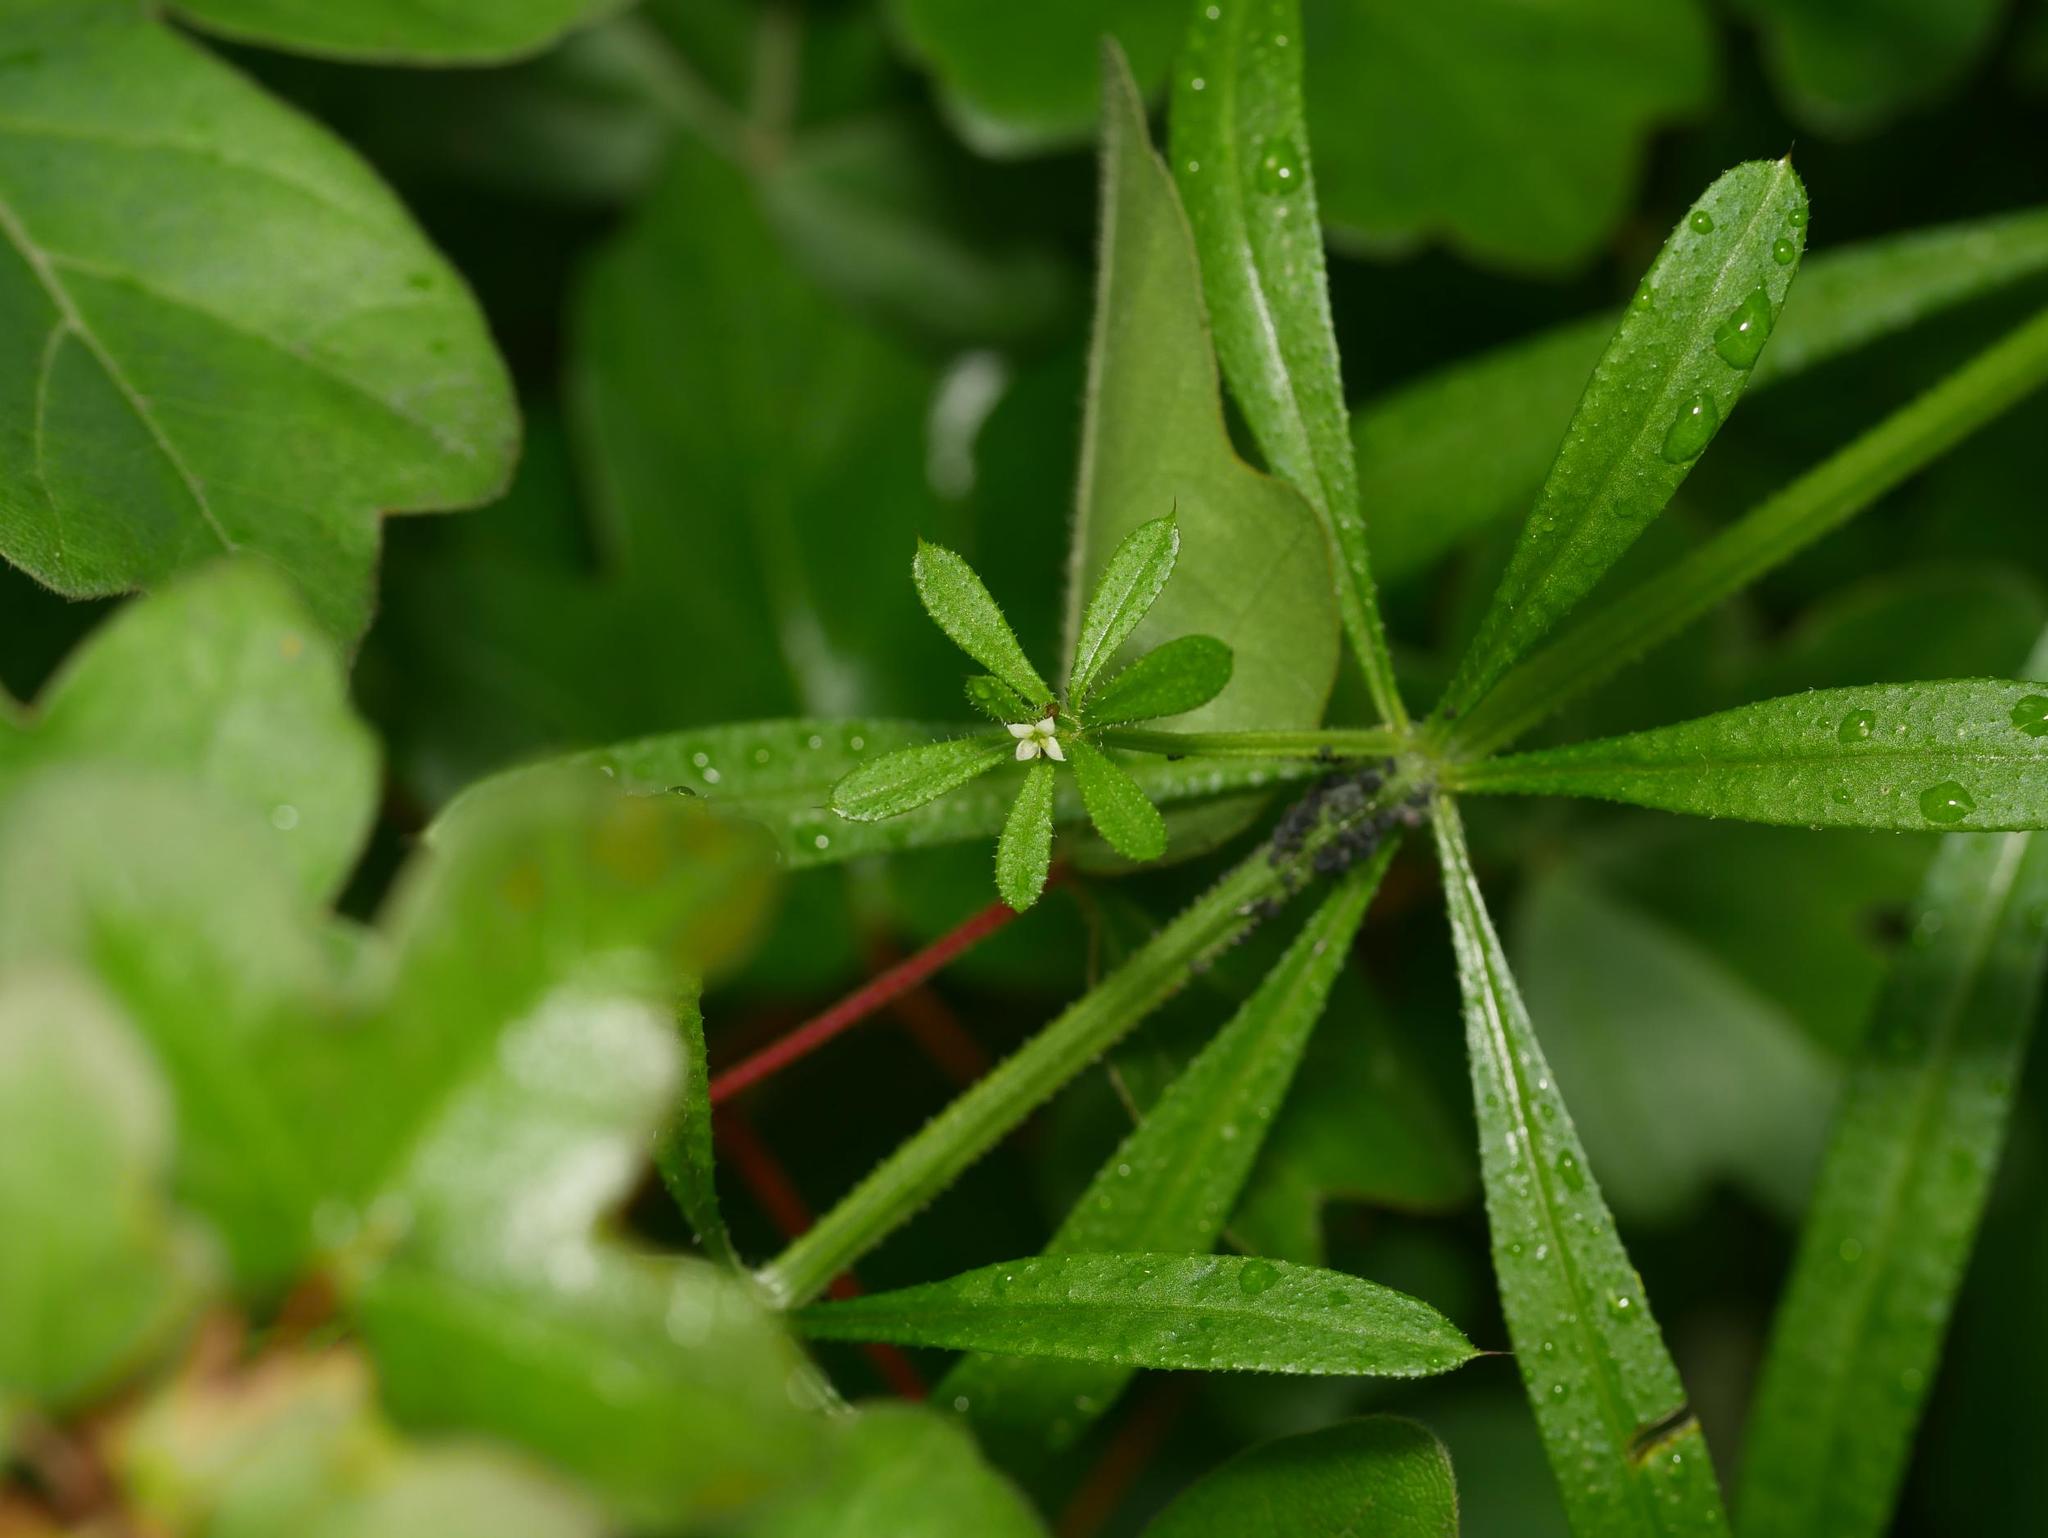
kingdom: Plantae
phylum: Tracheophyta
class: Magnoliopsida
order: Gentianales
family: Rubiaceae
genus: Galium
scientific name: Galium aparine
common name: Cleavers
